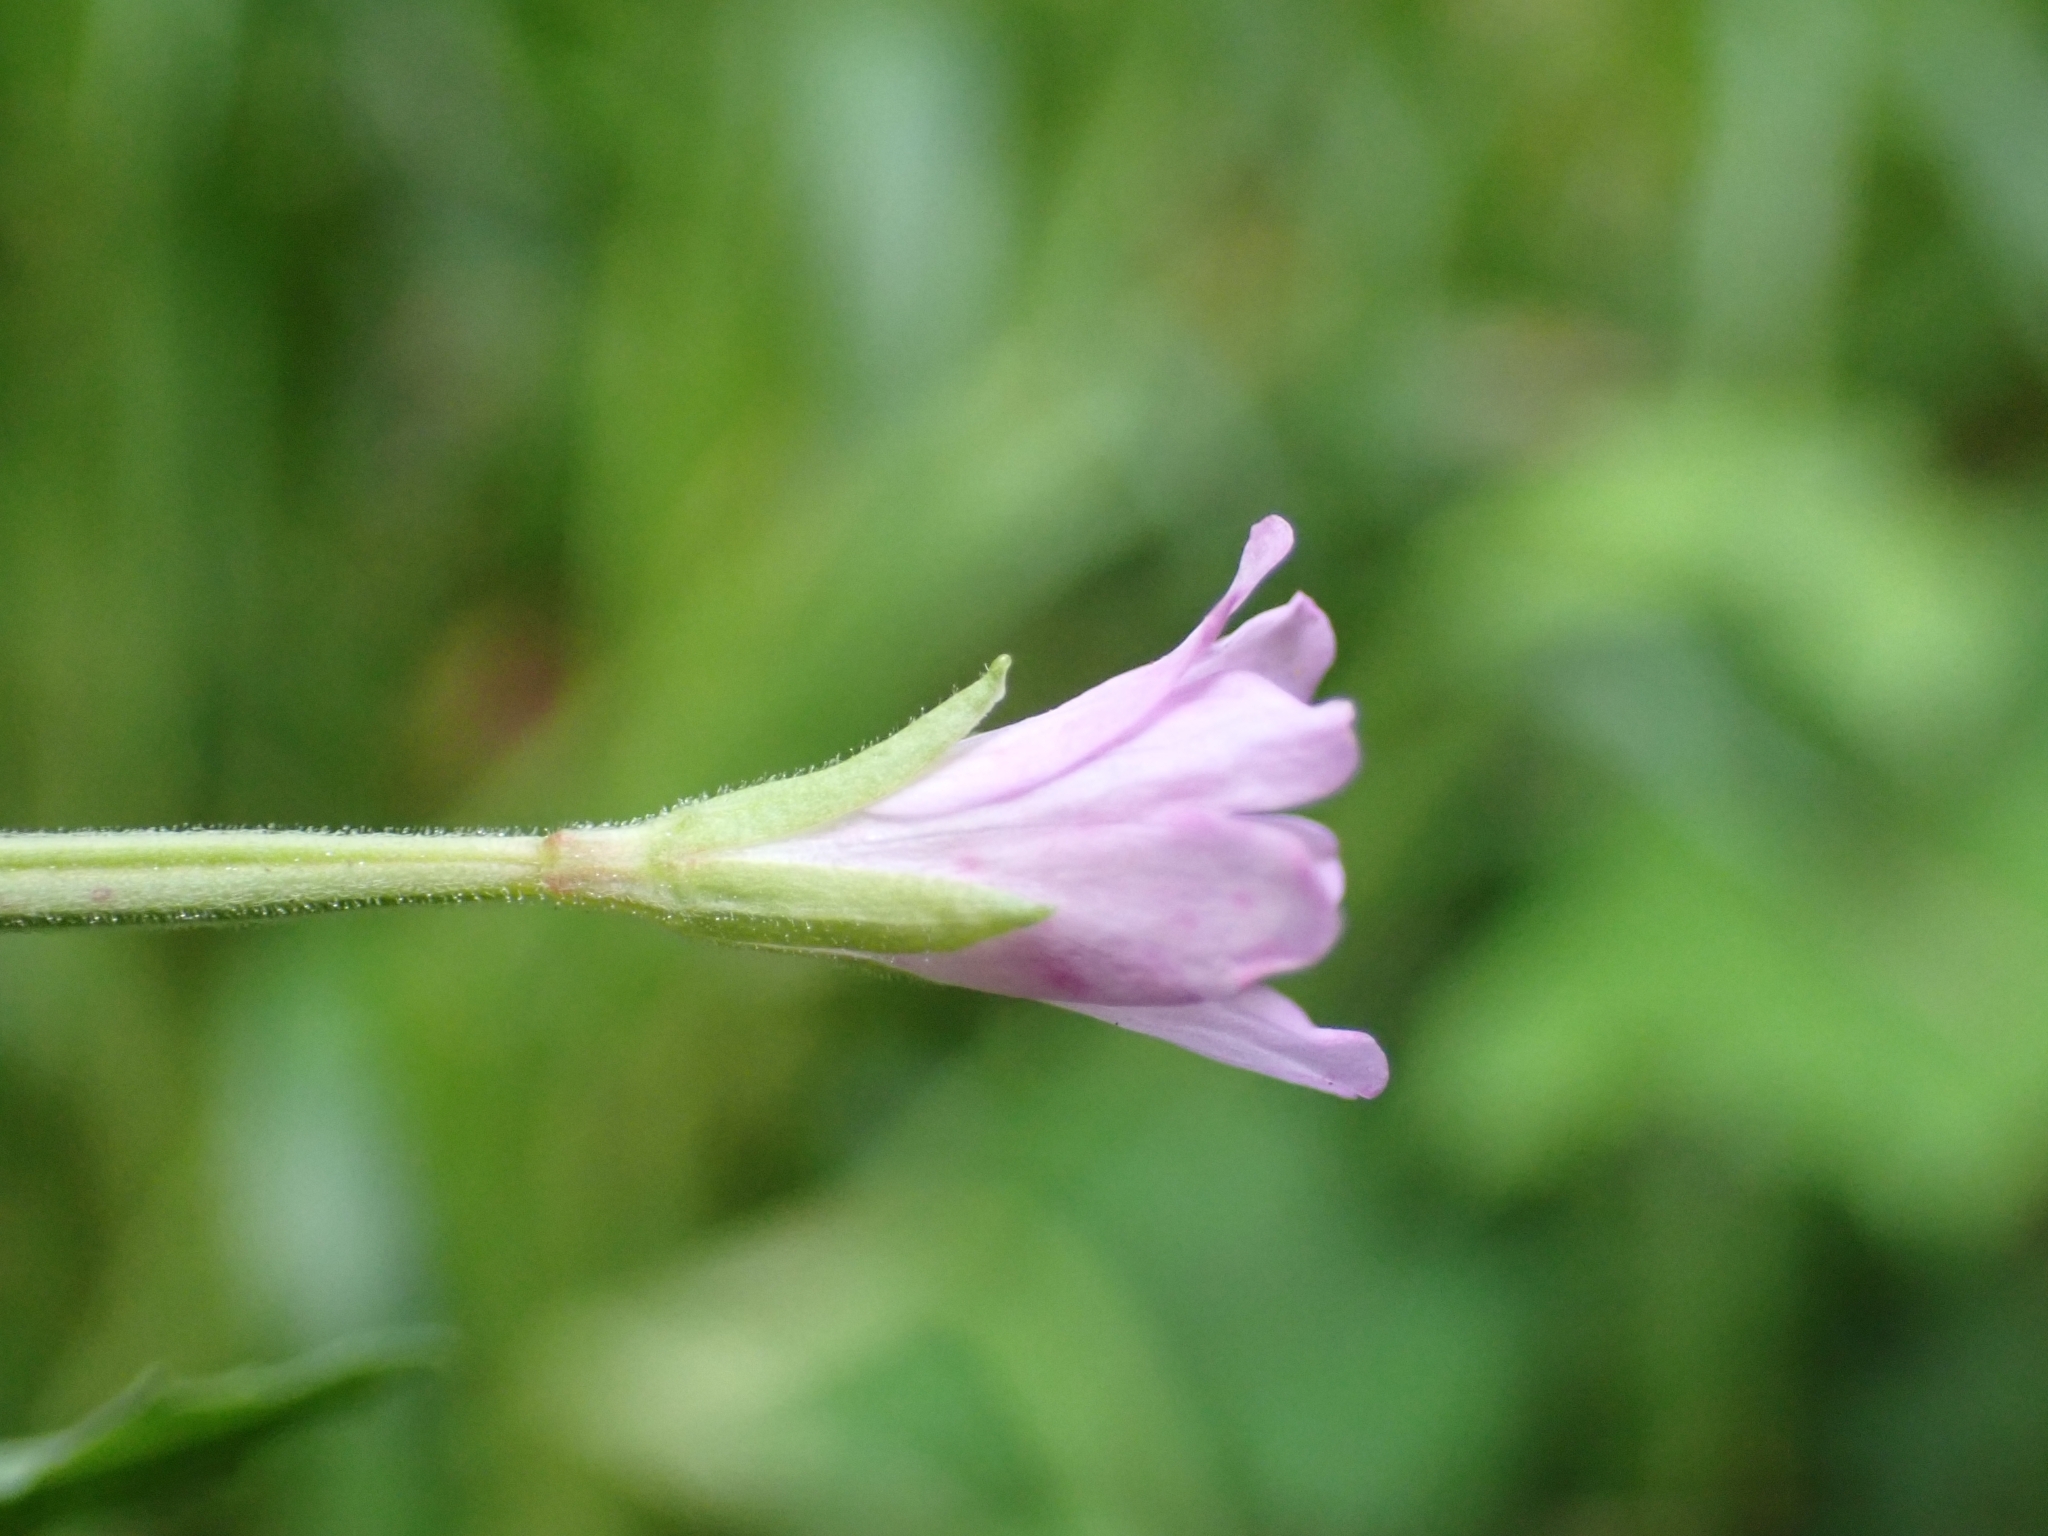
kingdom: Plantae
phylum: Tracheophyta
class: Magnoliopsida
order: Myrtales
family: Onagraceae
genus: Epilobium
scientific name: Epilobium montanum
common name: Broad-leaved willowherb
